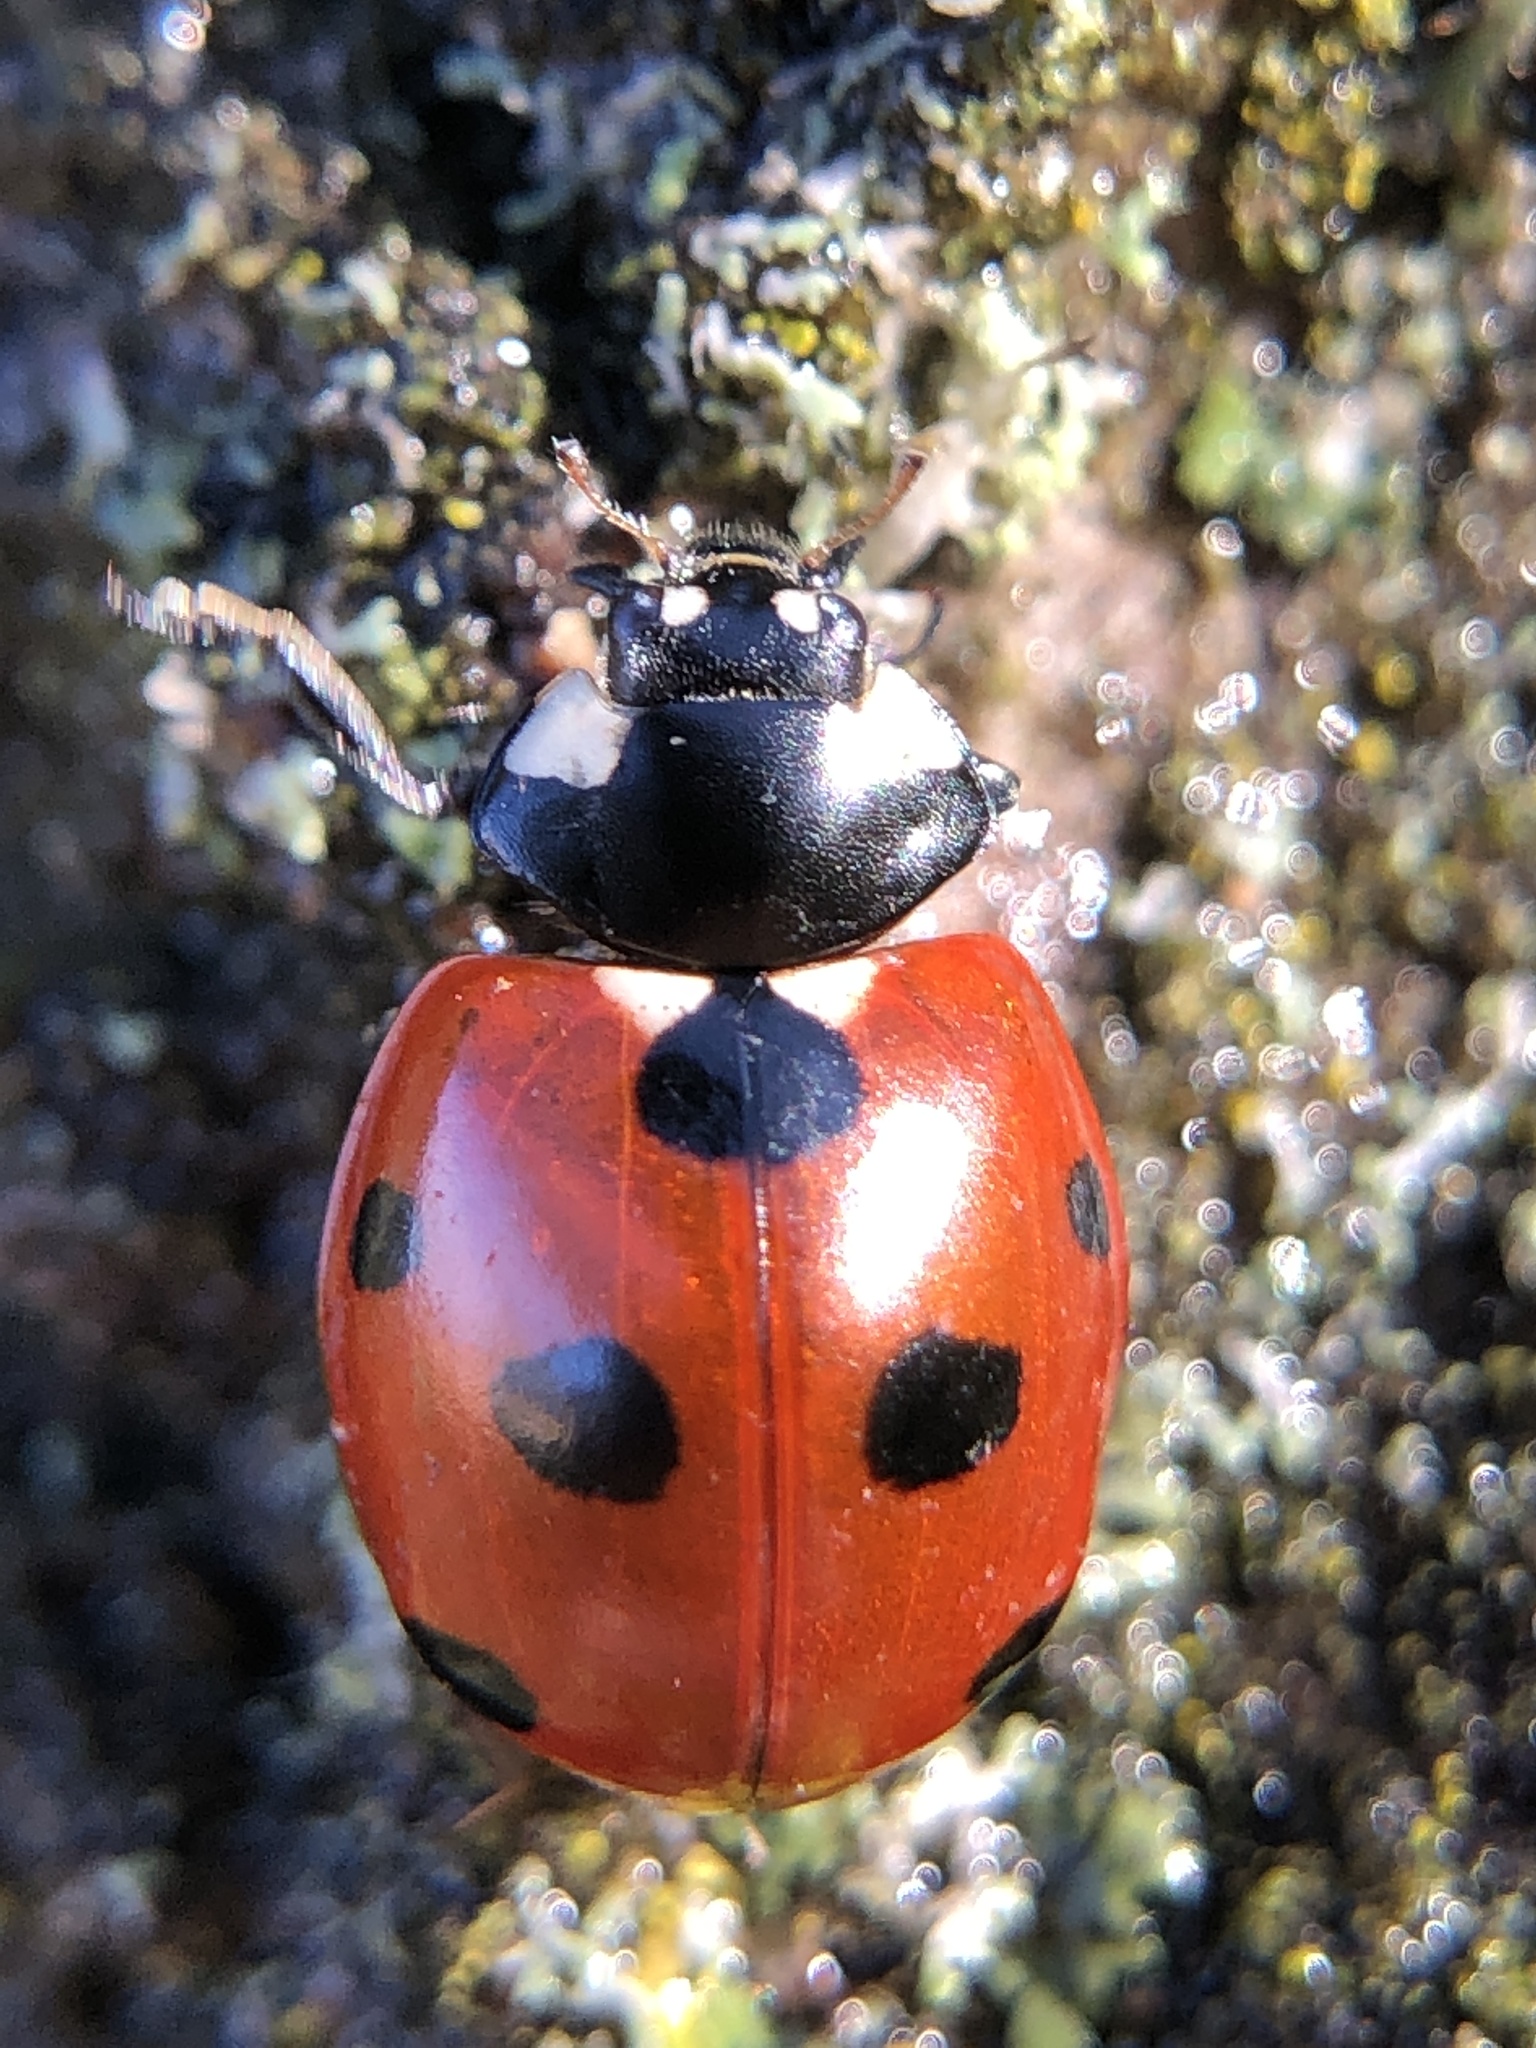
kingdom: Animalia
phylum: Arthropoda
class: Insecta
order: Coleoptera
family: Coccinellidae
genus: Coccinella
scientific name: Coccinella septempunctata
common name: Sevenspotted lady beetle
